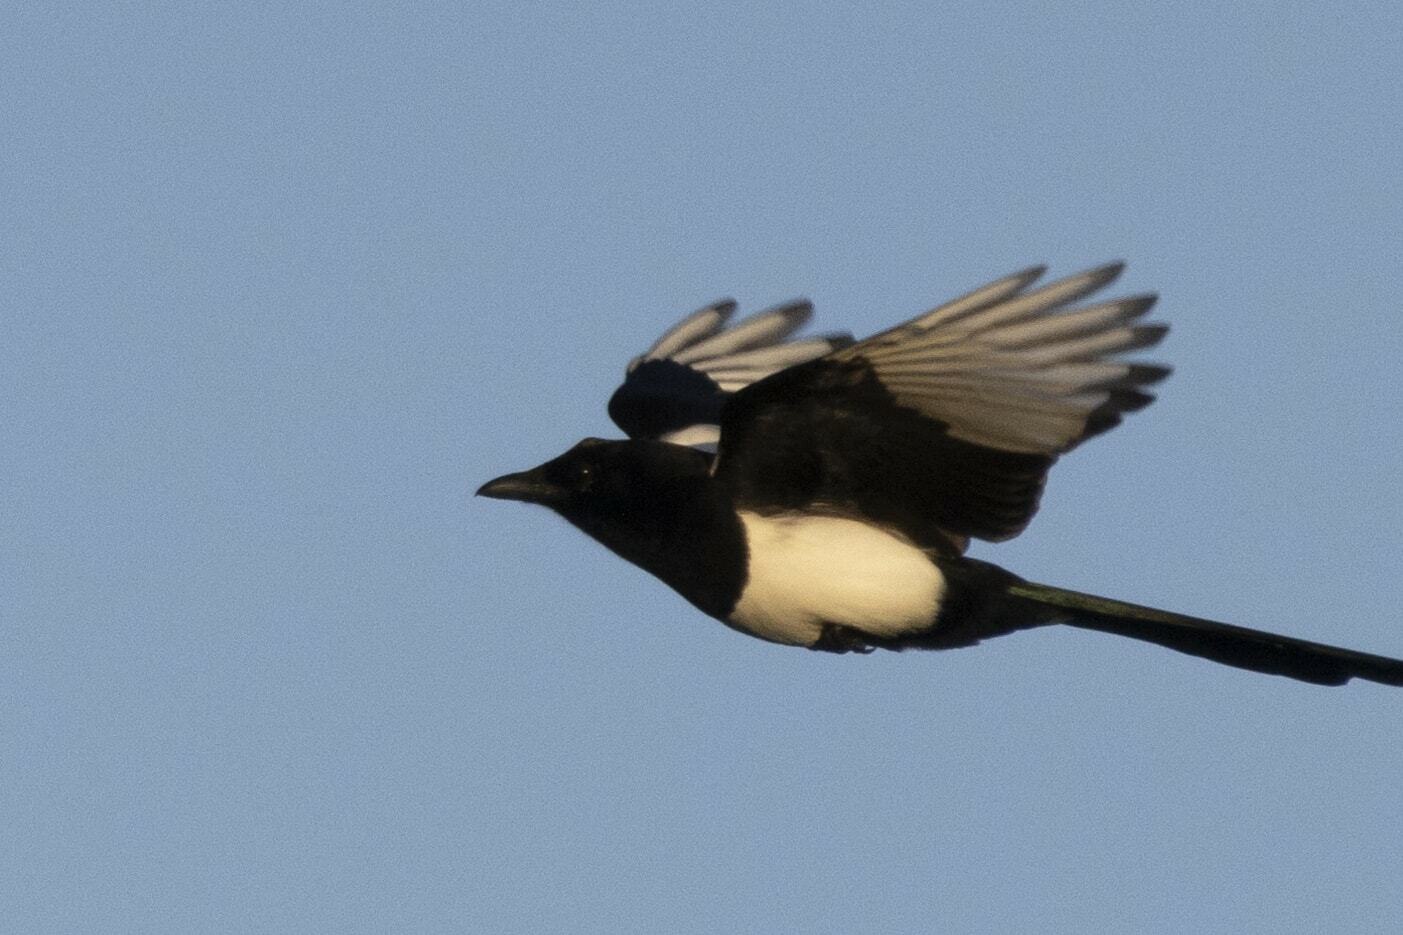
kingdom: Animalia
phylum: Chordata
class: Aves
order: Passeriformes
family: Corvidae
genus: Pica
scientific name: Pica pica
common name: Eurasian magpie
